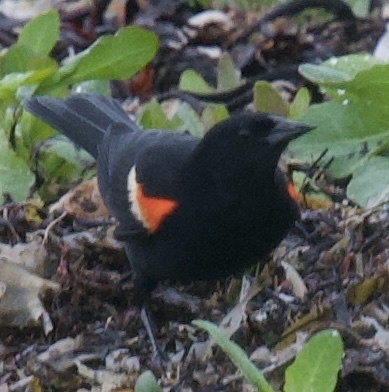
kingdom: Animalia
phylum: Chordata
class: Aves
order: Passeriformes
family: Icteridae
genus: Agelaius
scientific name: Agelaius phoeniceus
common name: Red-winged blackbird
